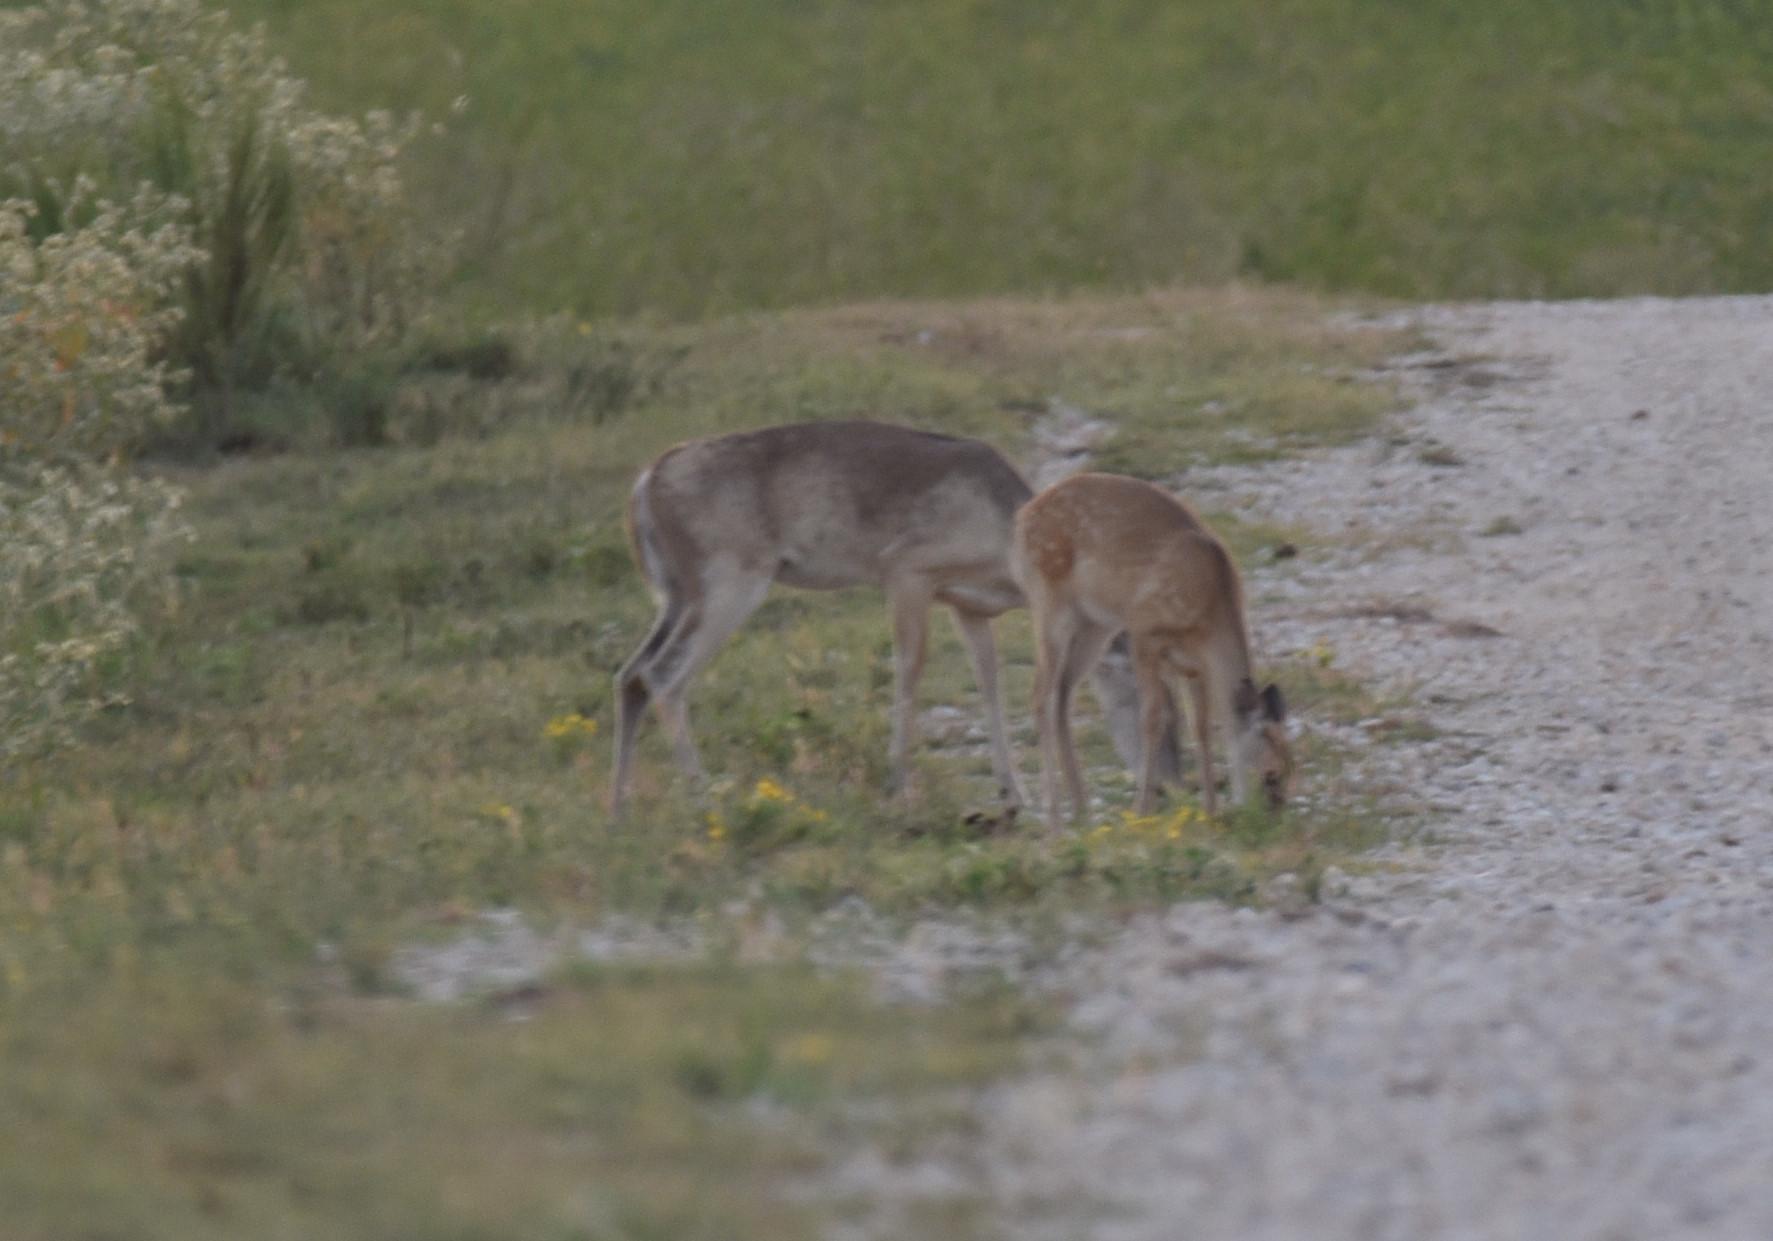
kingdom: Animalia
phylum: Chordata
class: Mammalia
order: Artiodactyla
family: Cervidae
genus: Odocoileus
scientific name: Odocoileus virginianus
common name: White-tailed deer
